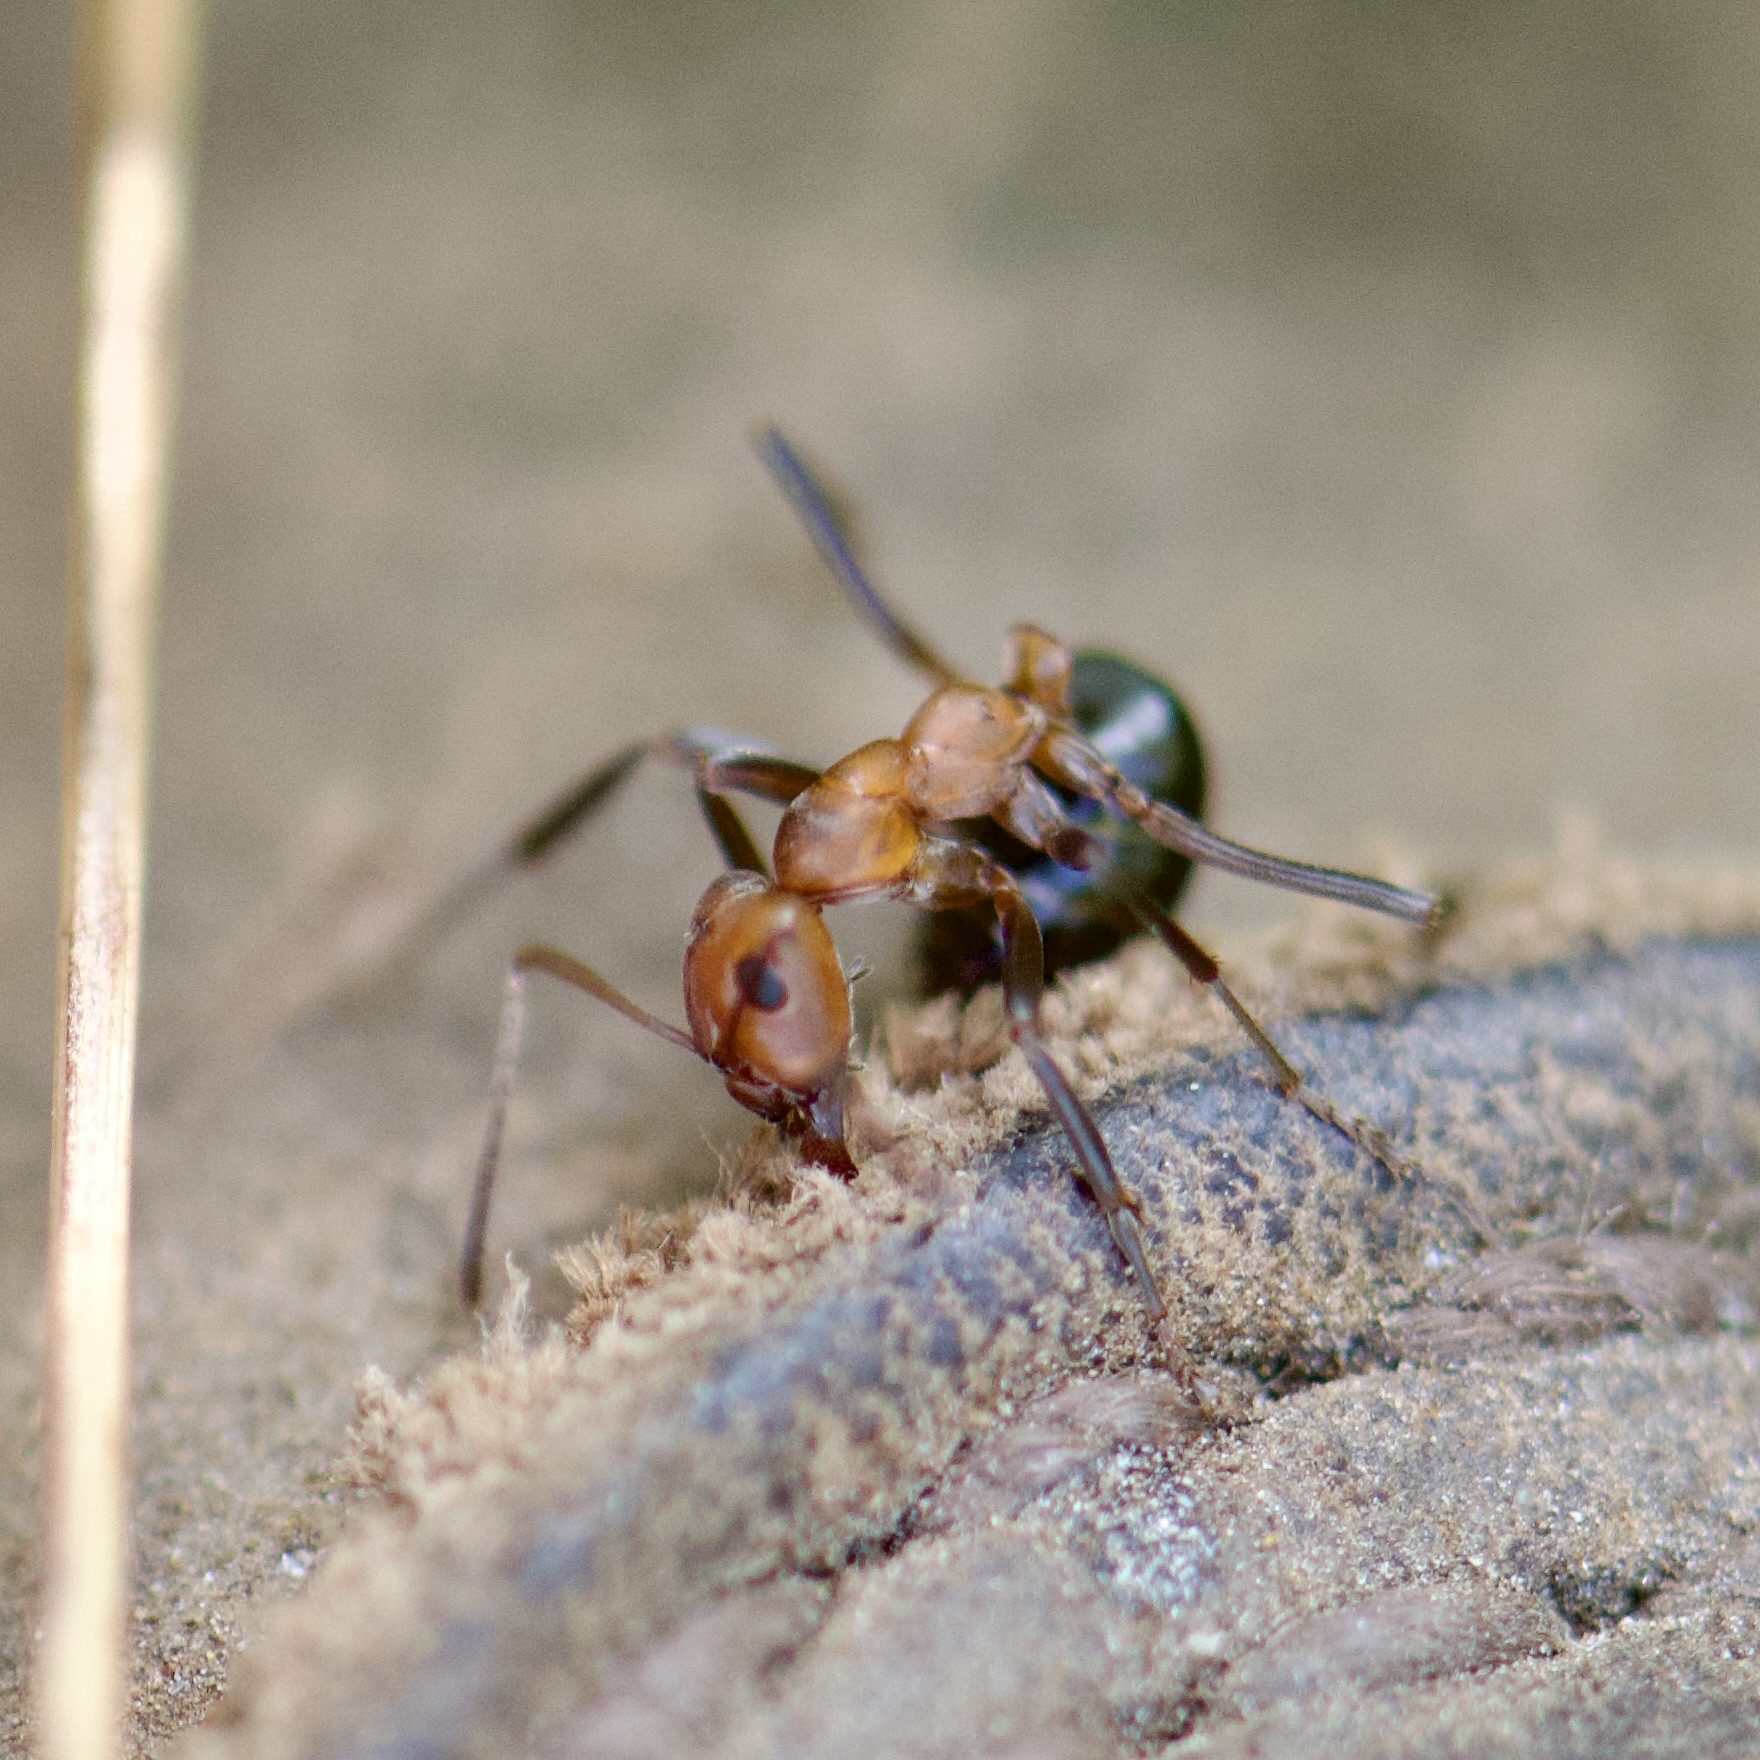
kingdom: Animalia
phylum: Arthropoda
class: Insecta
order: Hymenoptera
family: Formicidae
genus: Formica
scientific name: Formica exsectoides
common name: Allegheny mound ant
